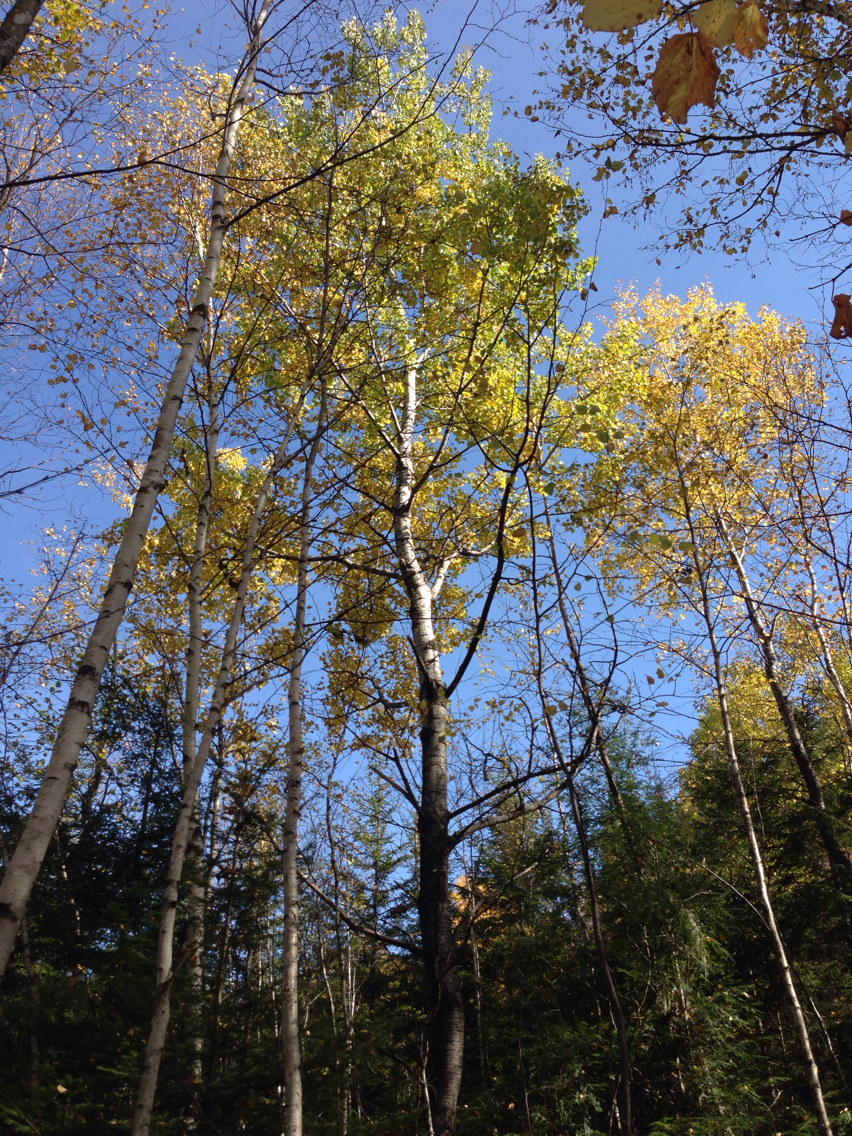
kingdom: Plantae
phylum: Tracheophyta
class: Magnoliopsida
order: Malpighiales
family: Salicaceae
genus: Populus
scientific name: Populus tremuloides
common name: Quaking aspen
